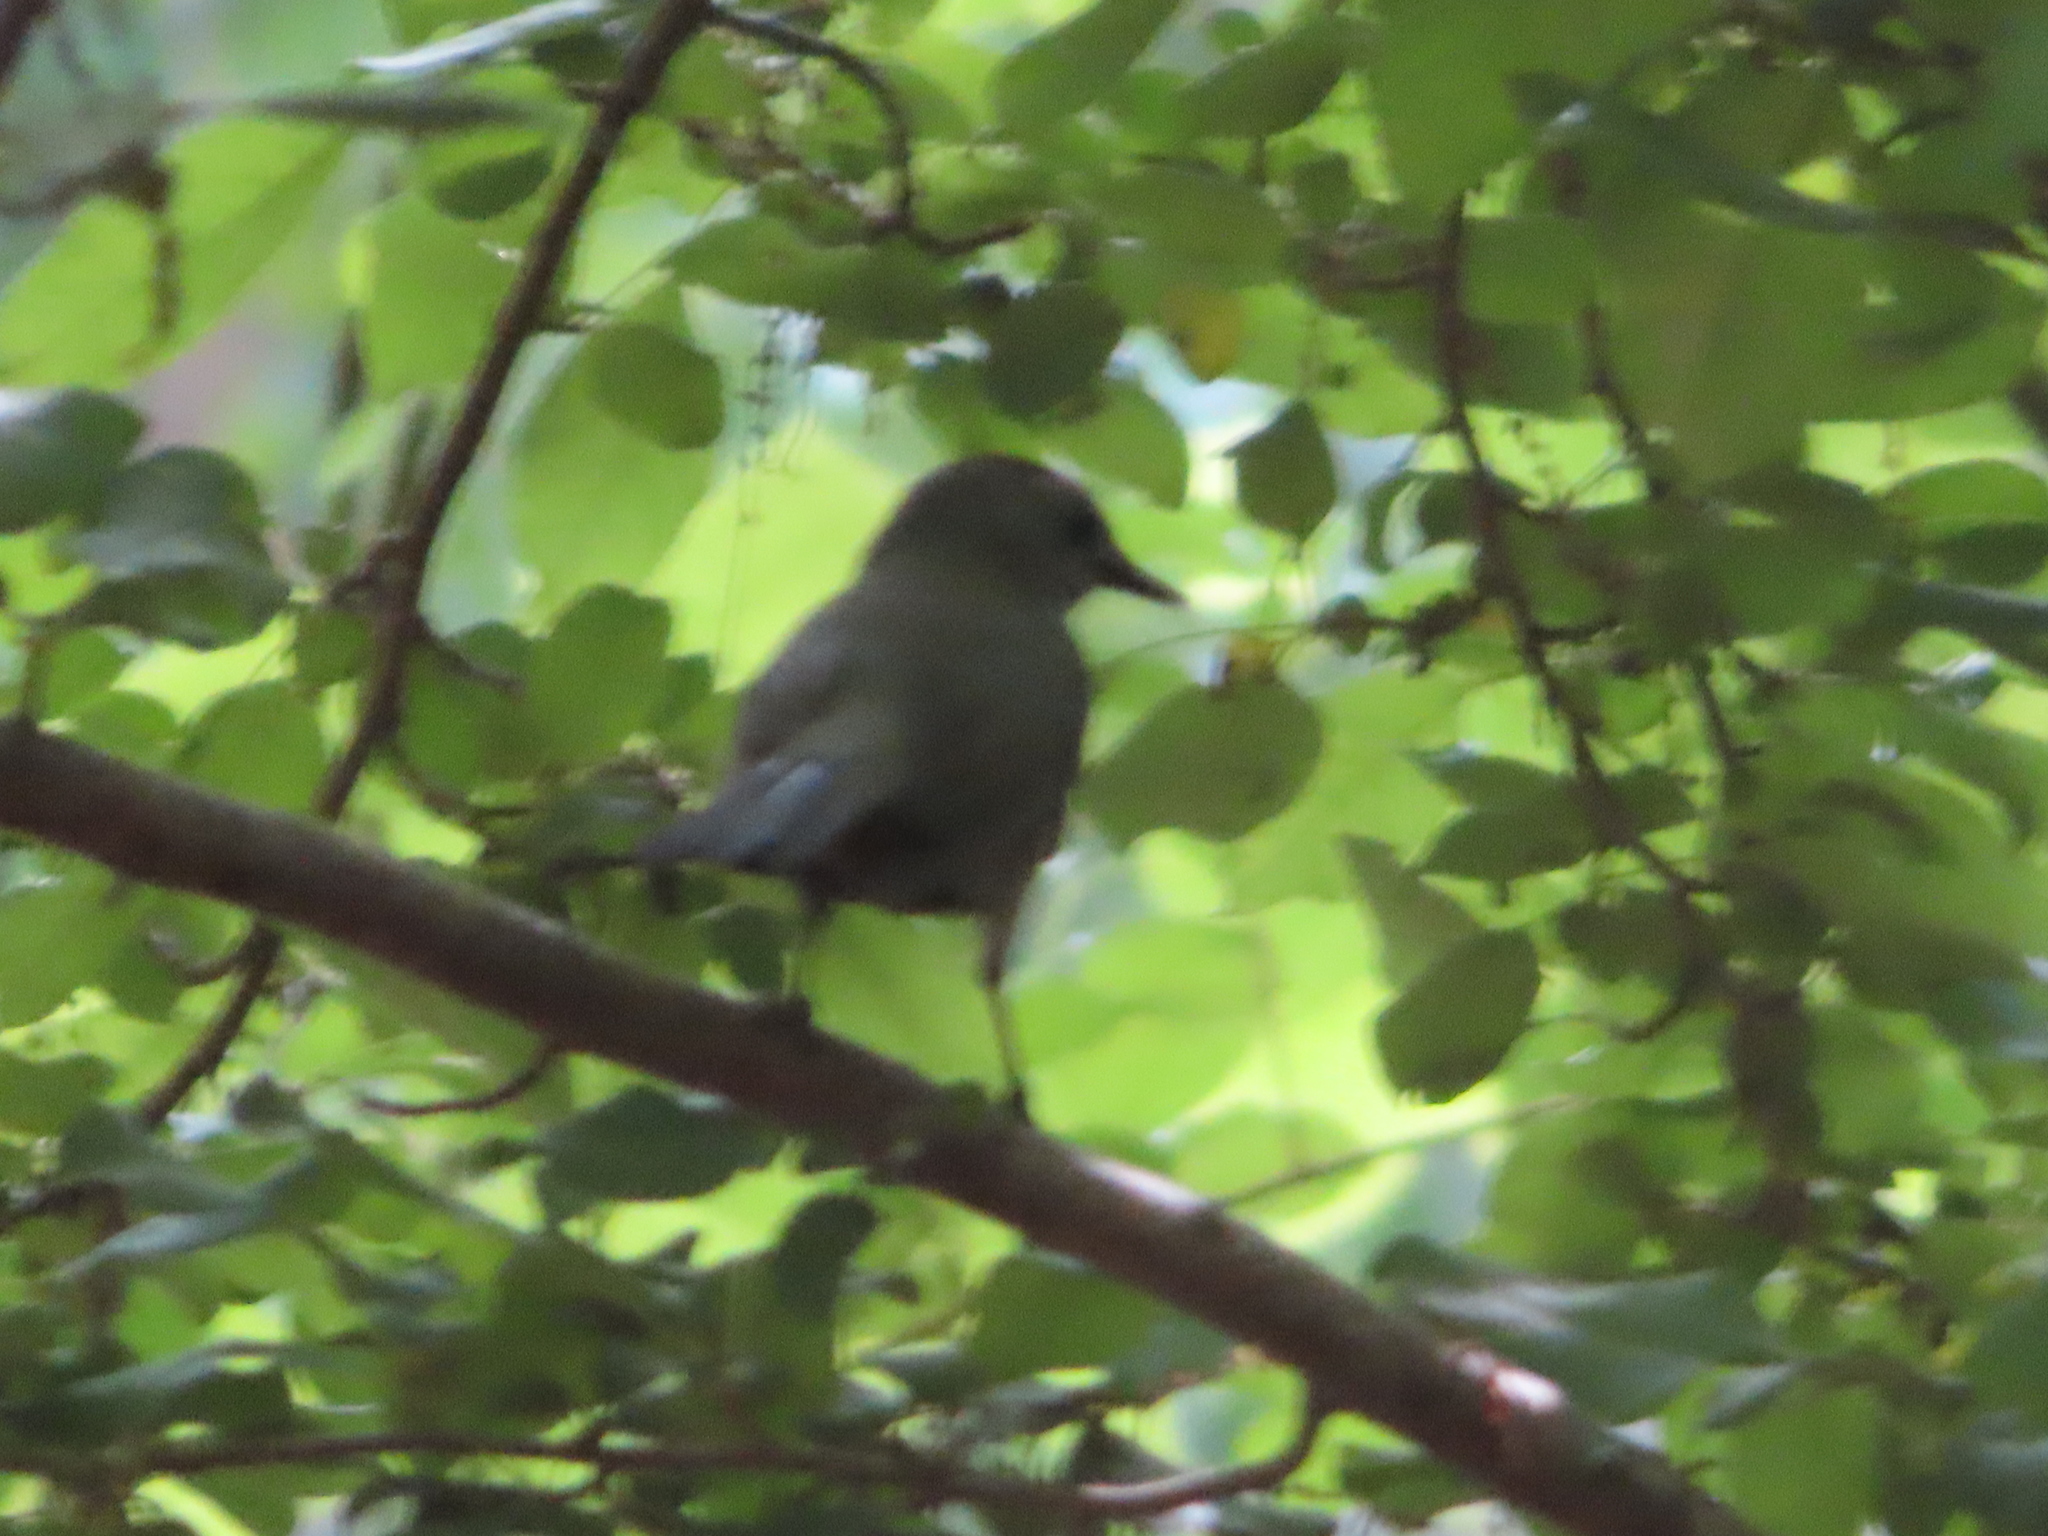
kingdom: Animalia
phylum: Chordata
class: Aves
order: Passeriformes
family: Mimidae
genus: Dumetella
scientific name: Dumetella carolinensis
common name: Gray catbird
